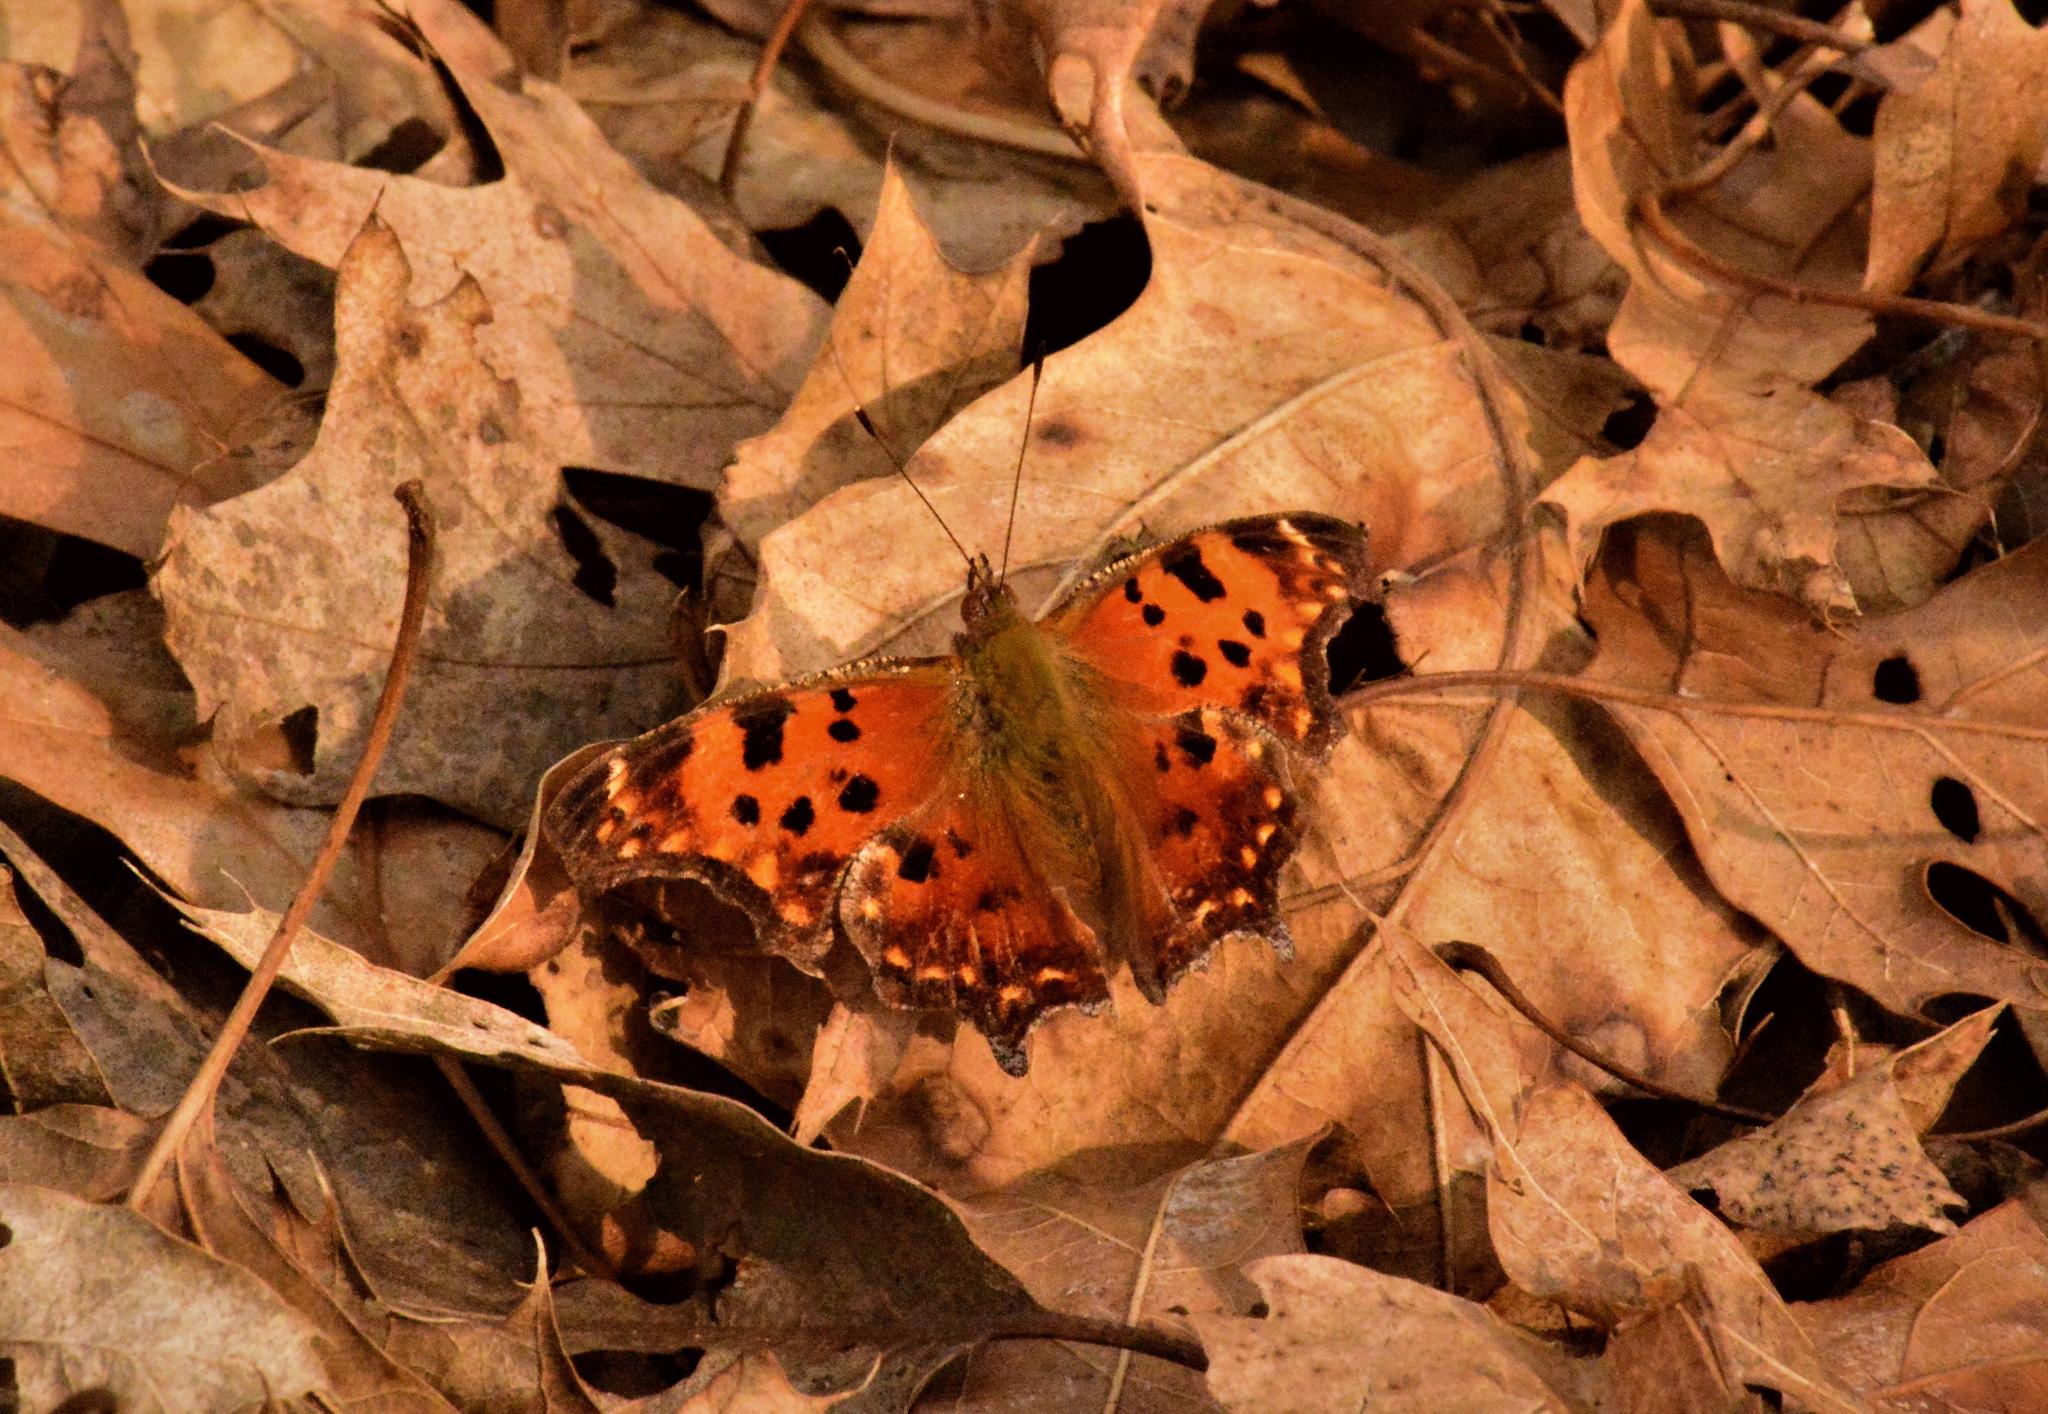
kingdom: Animalia
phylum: Arthropoda
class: Insecta
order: Lepidoptera
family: Nymphalidae
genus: Polygonia
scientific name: Polygonia comma
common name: Eastern comma
